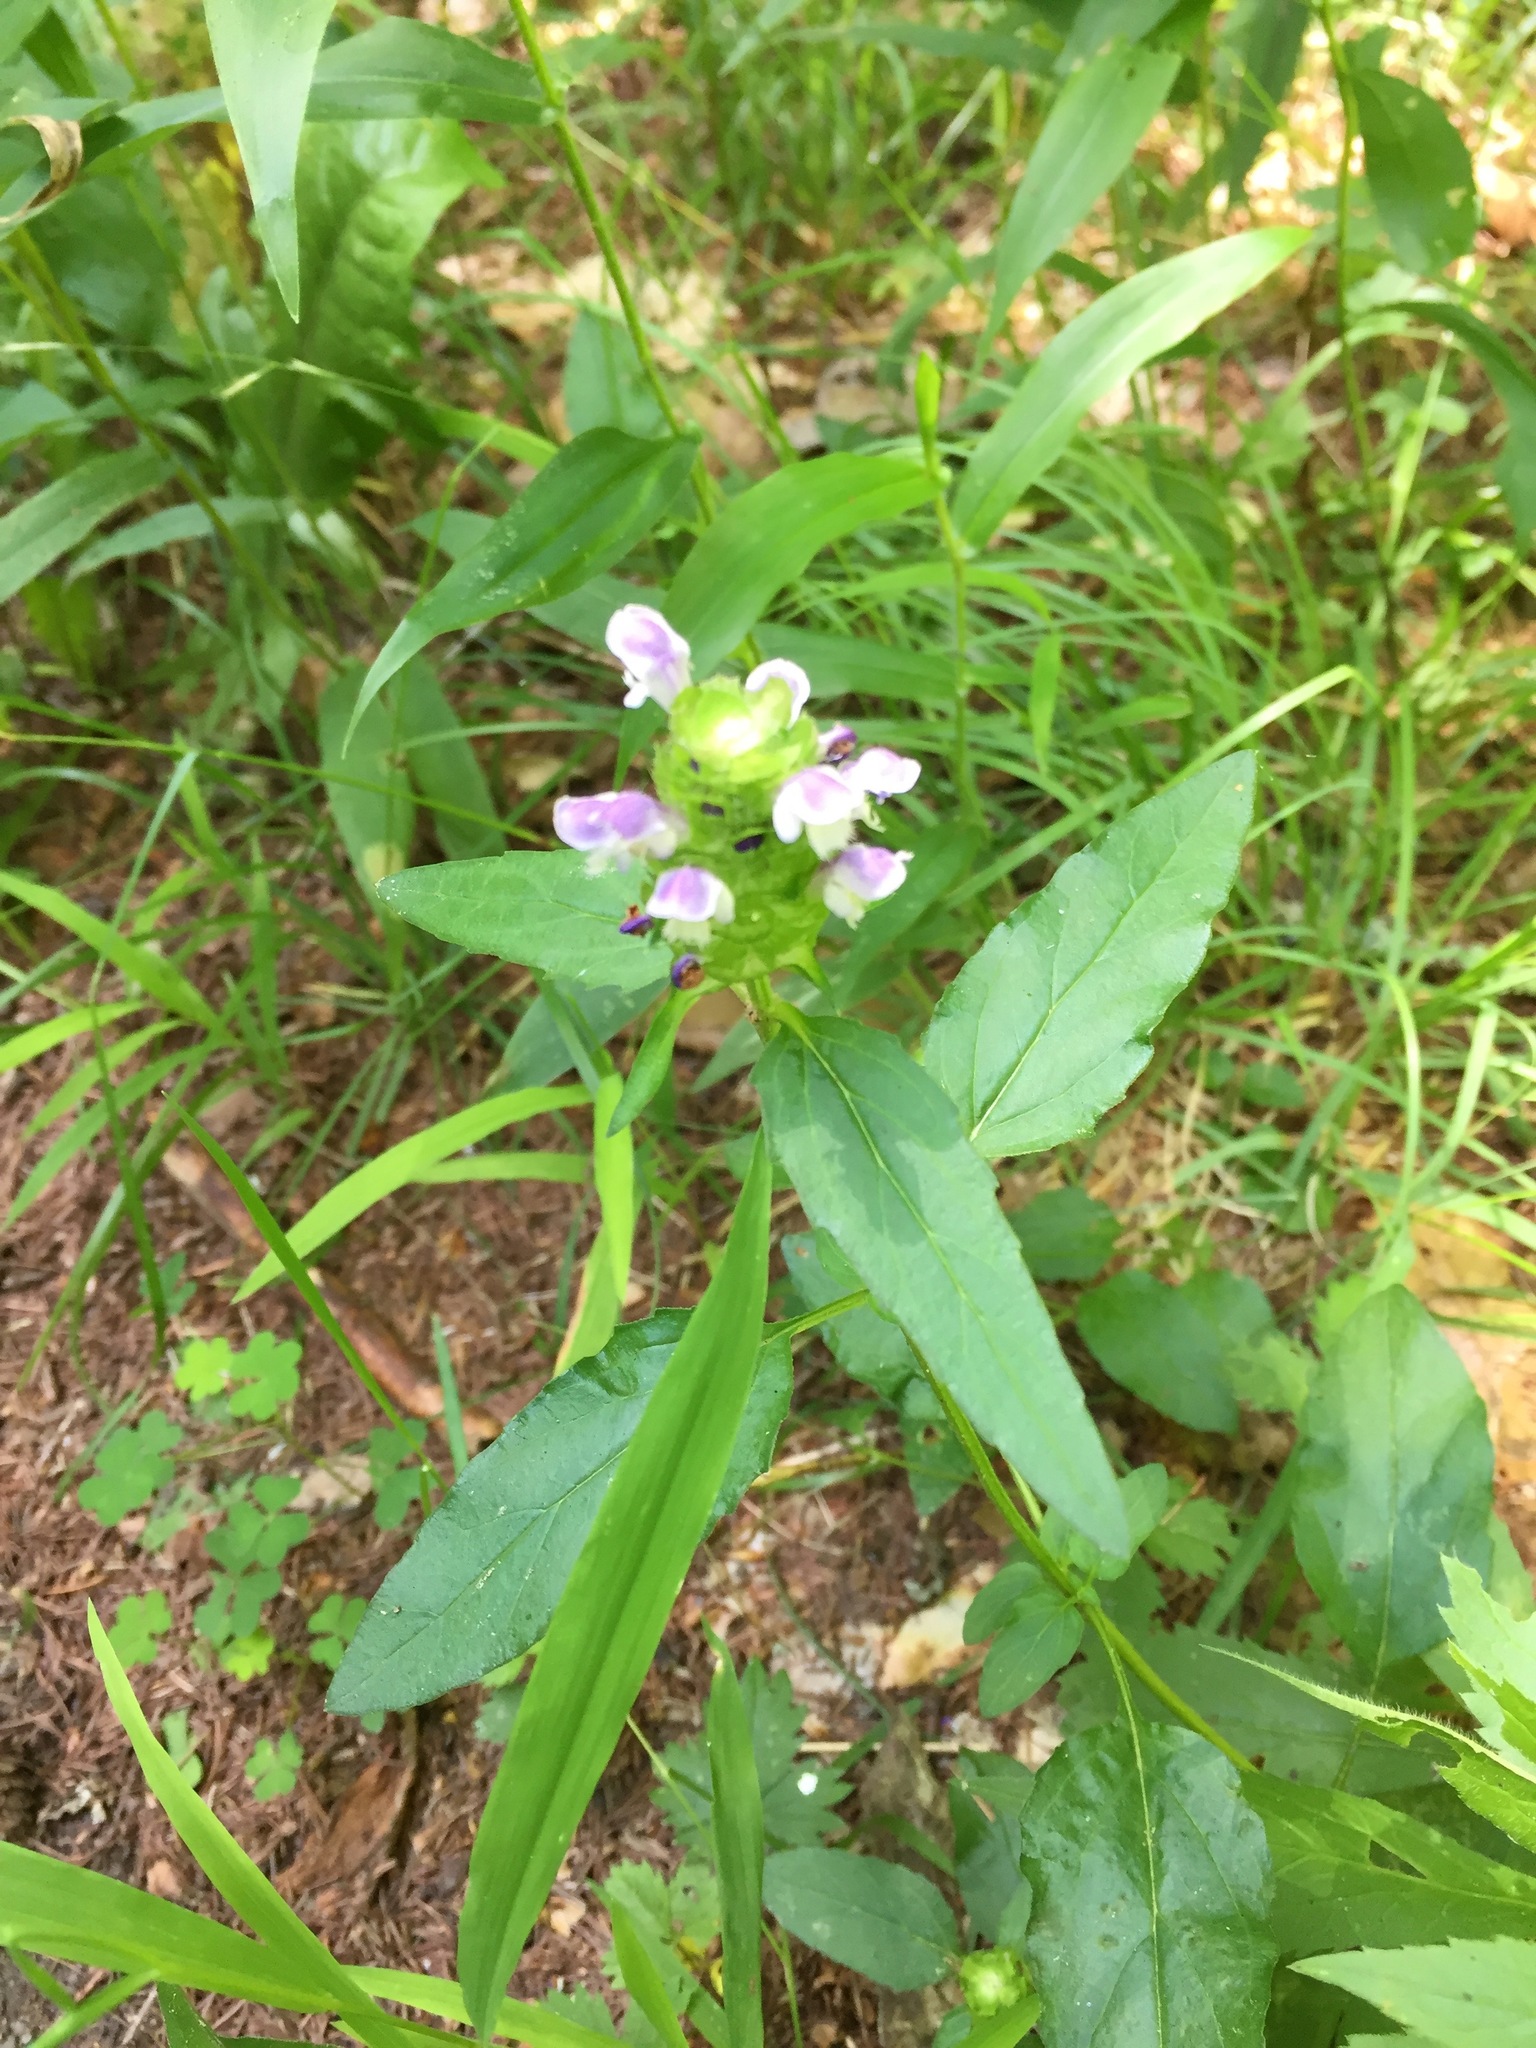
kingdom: Plantae
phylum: Tracheophyta
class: Magnoliopsida
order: Lamiales
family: Lamiaceae
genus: Prunella
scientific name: Prunella vulgaris
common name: Heal-all
